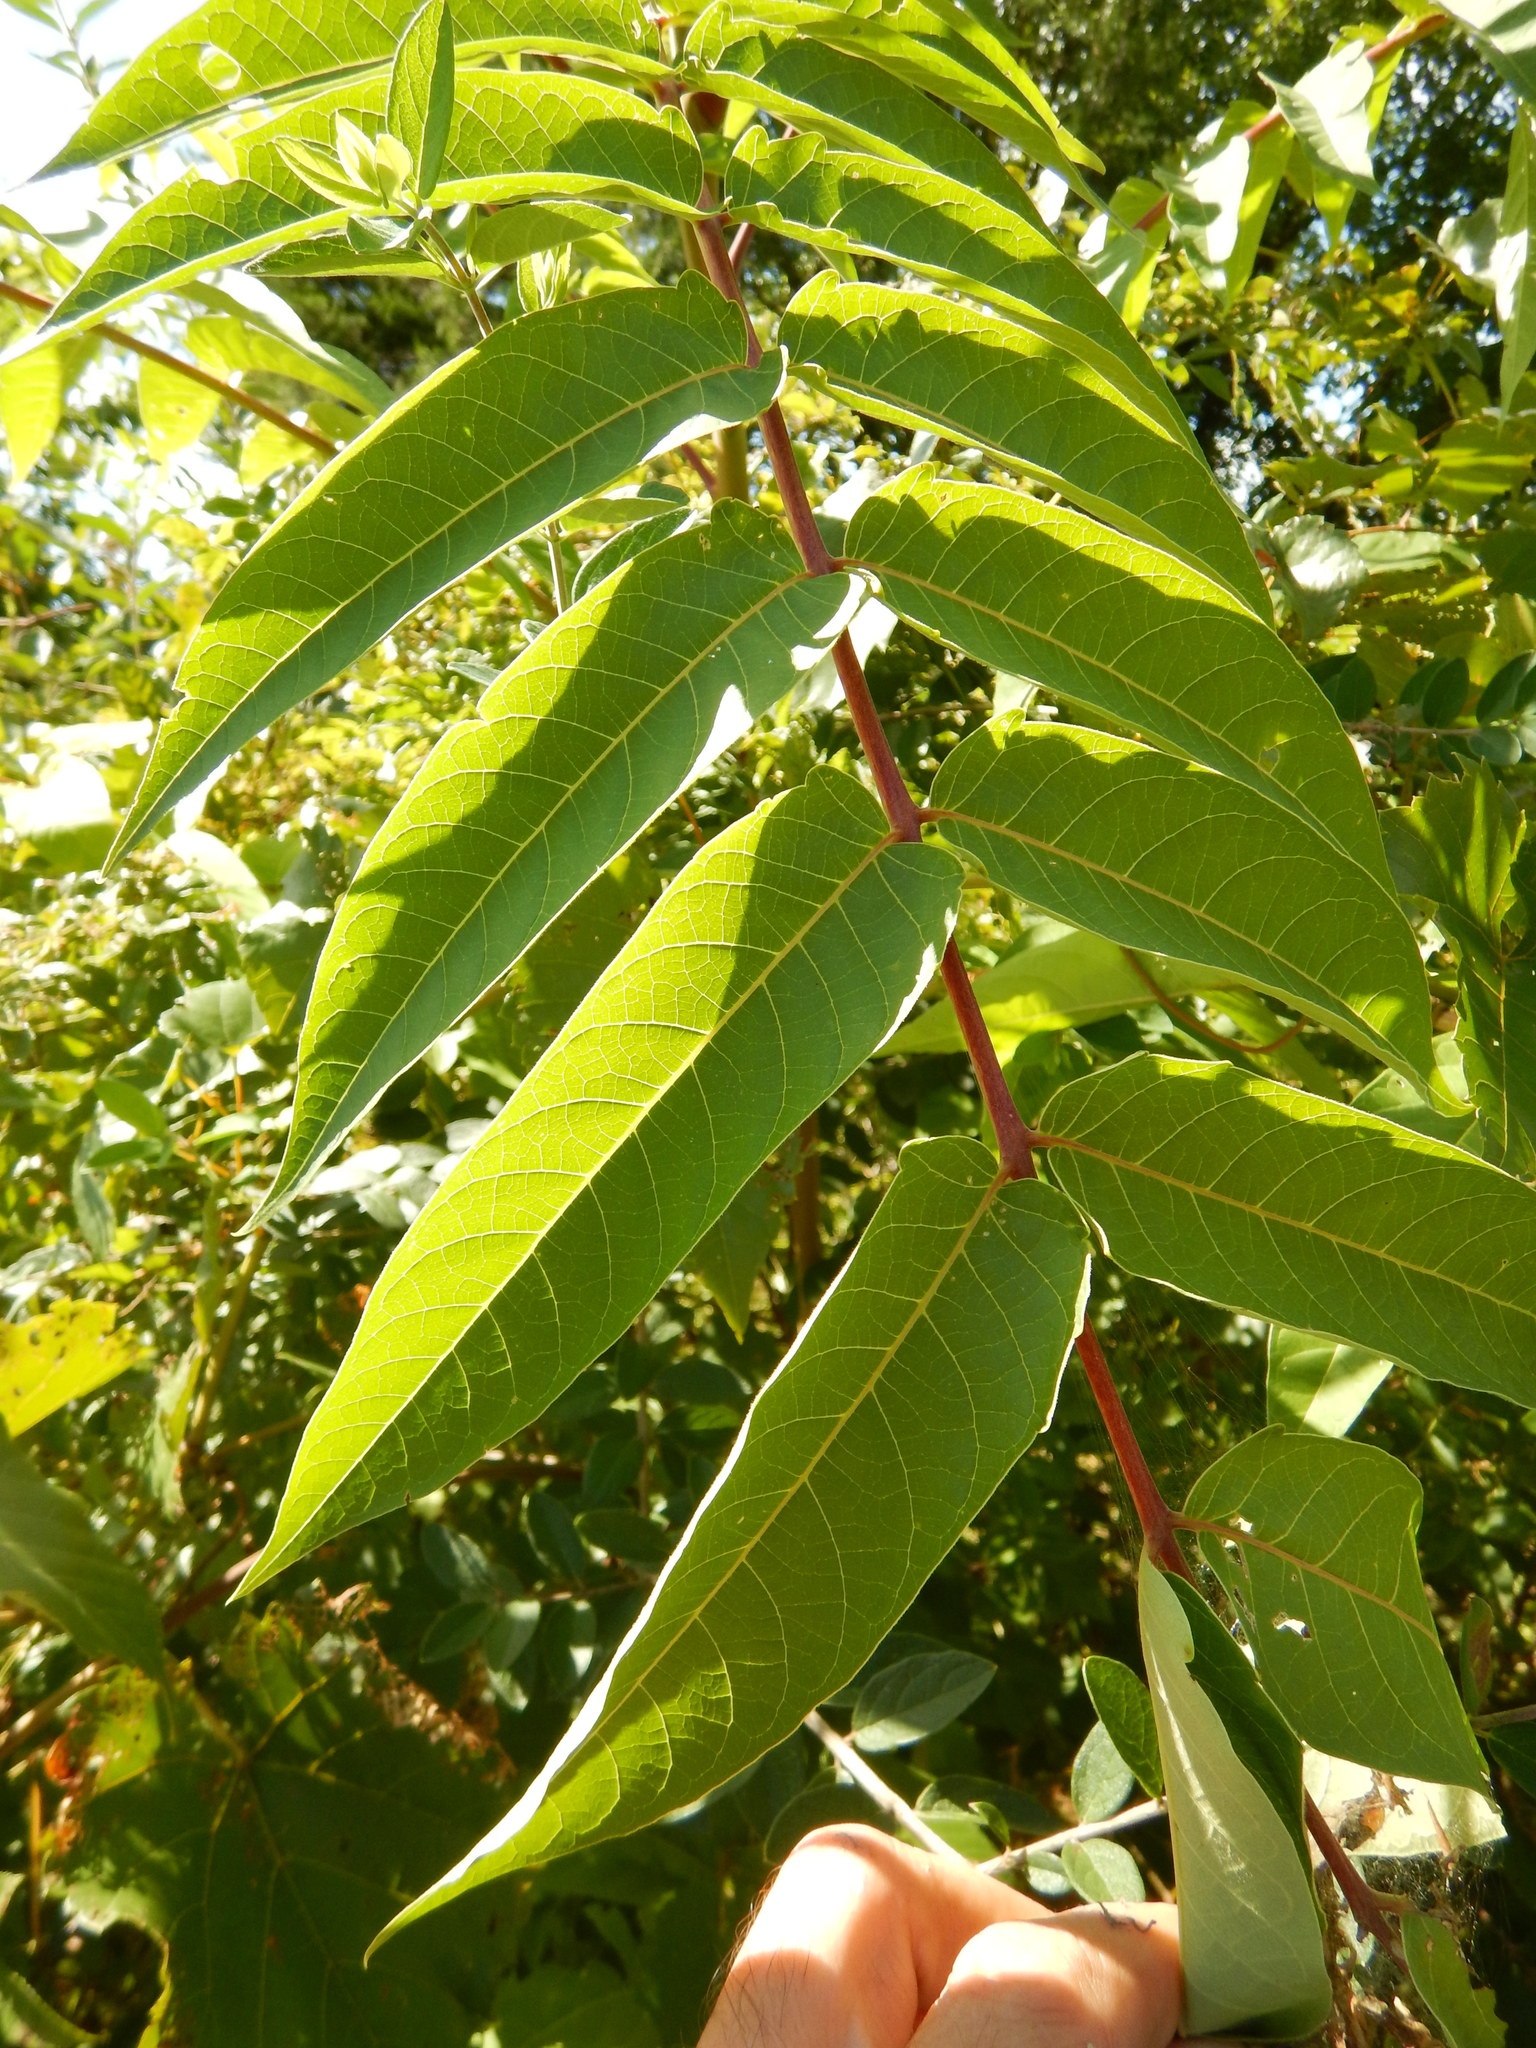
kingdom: Plantae
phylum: Tracheophyta
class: Magnoliopsida
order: Sapindales
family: Simaroubaceae
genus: Ailanthus
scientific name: Ailanthus altissima
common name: Tree-of-heaven
